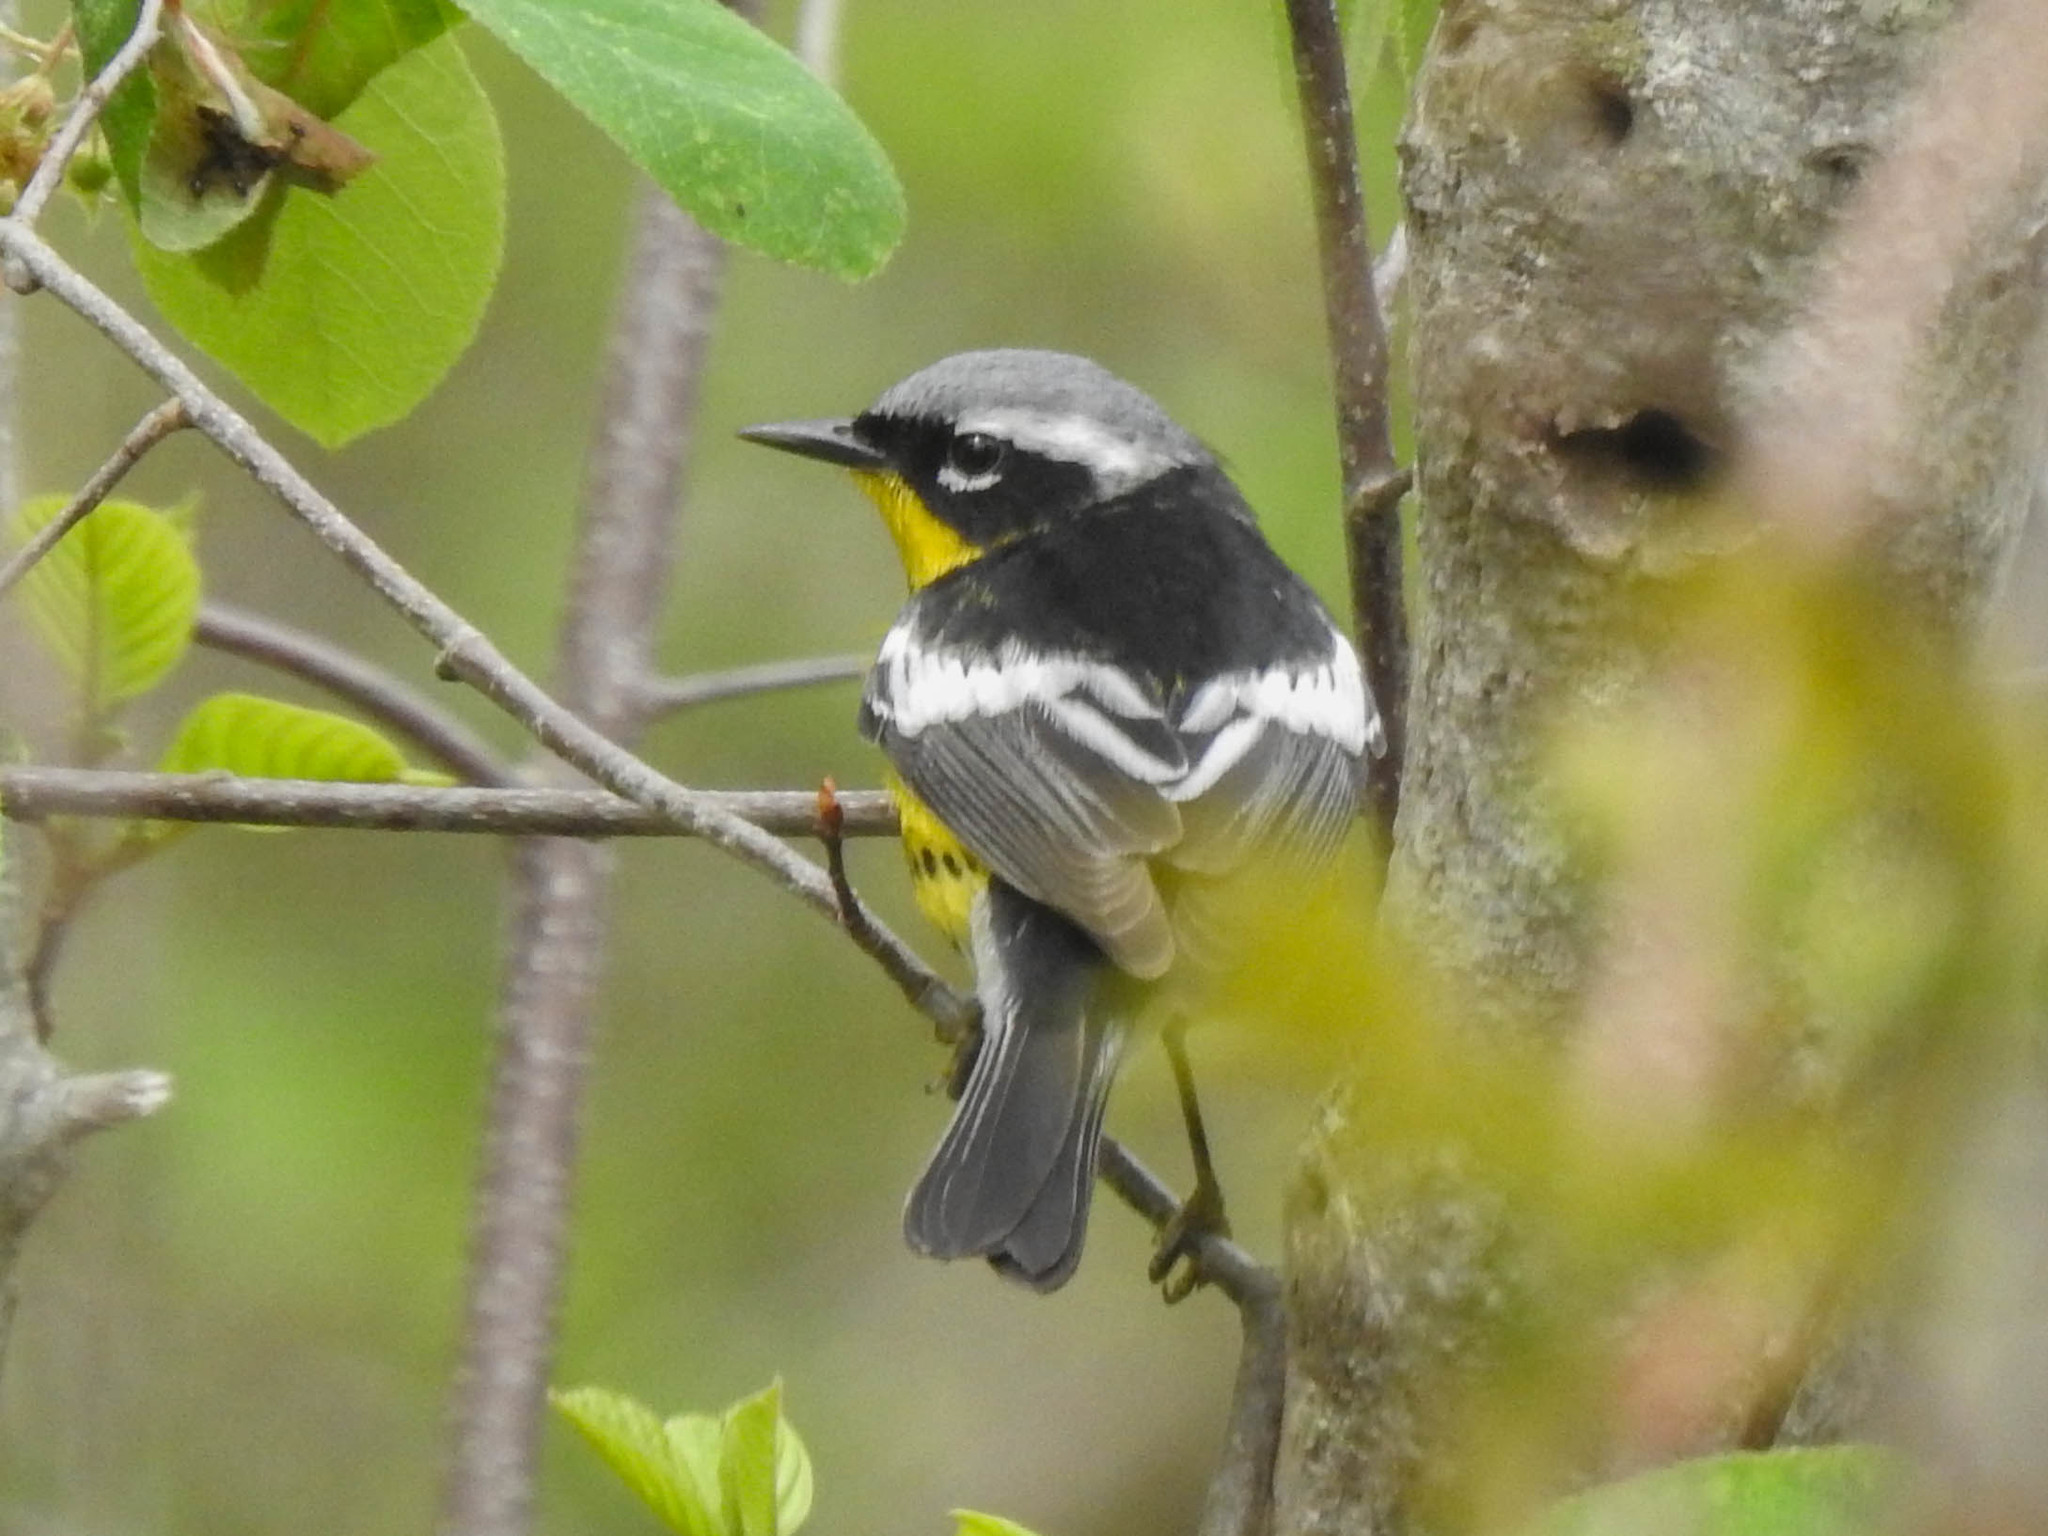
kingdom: Animalia
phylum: Chordata
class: Aves
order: Passeriformes
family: Parulidae
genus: Setophaga
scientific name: Setophaga magnolia
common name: Magnolia warbler
